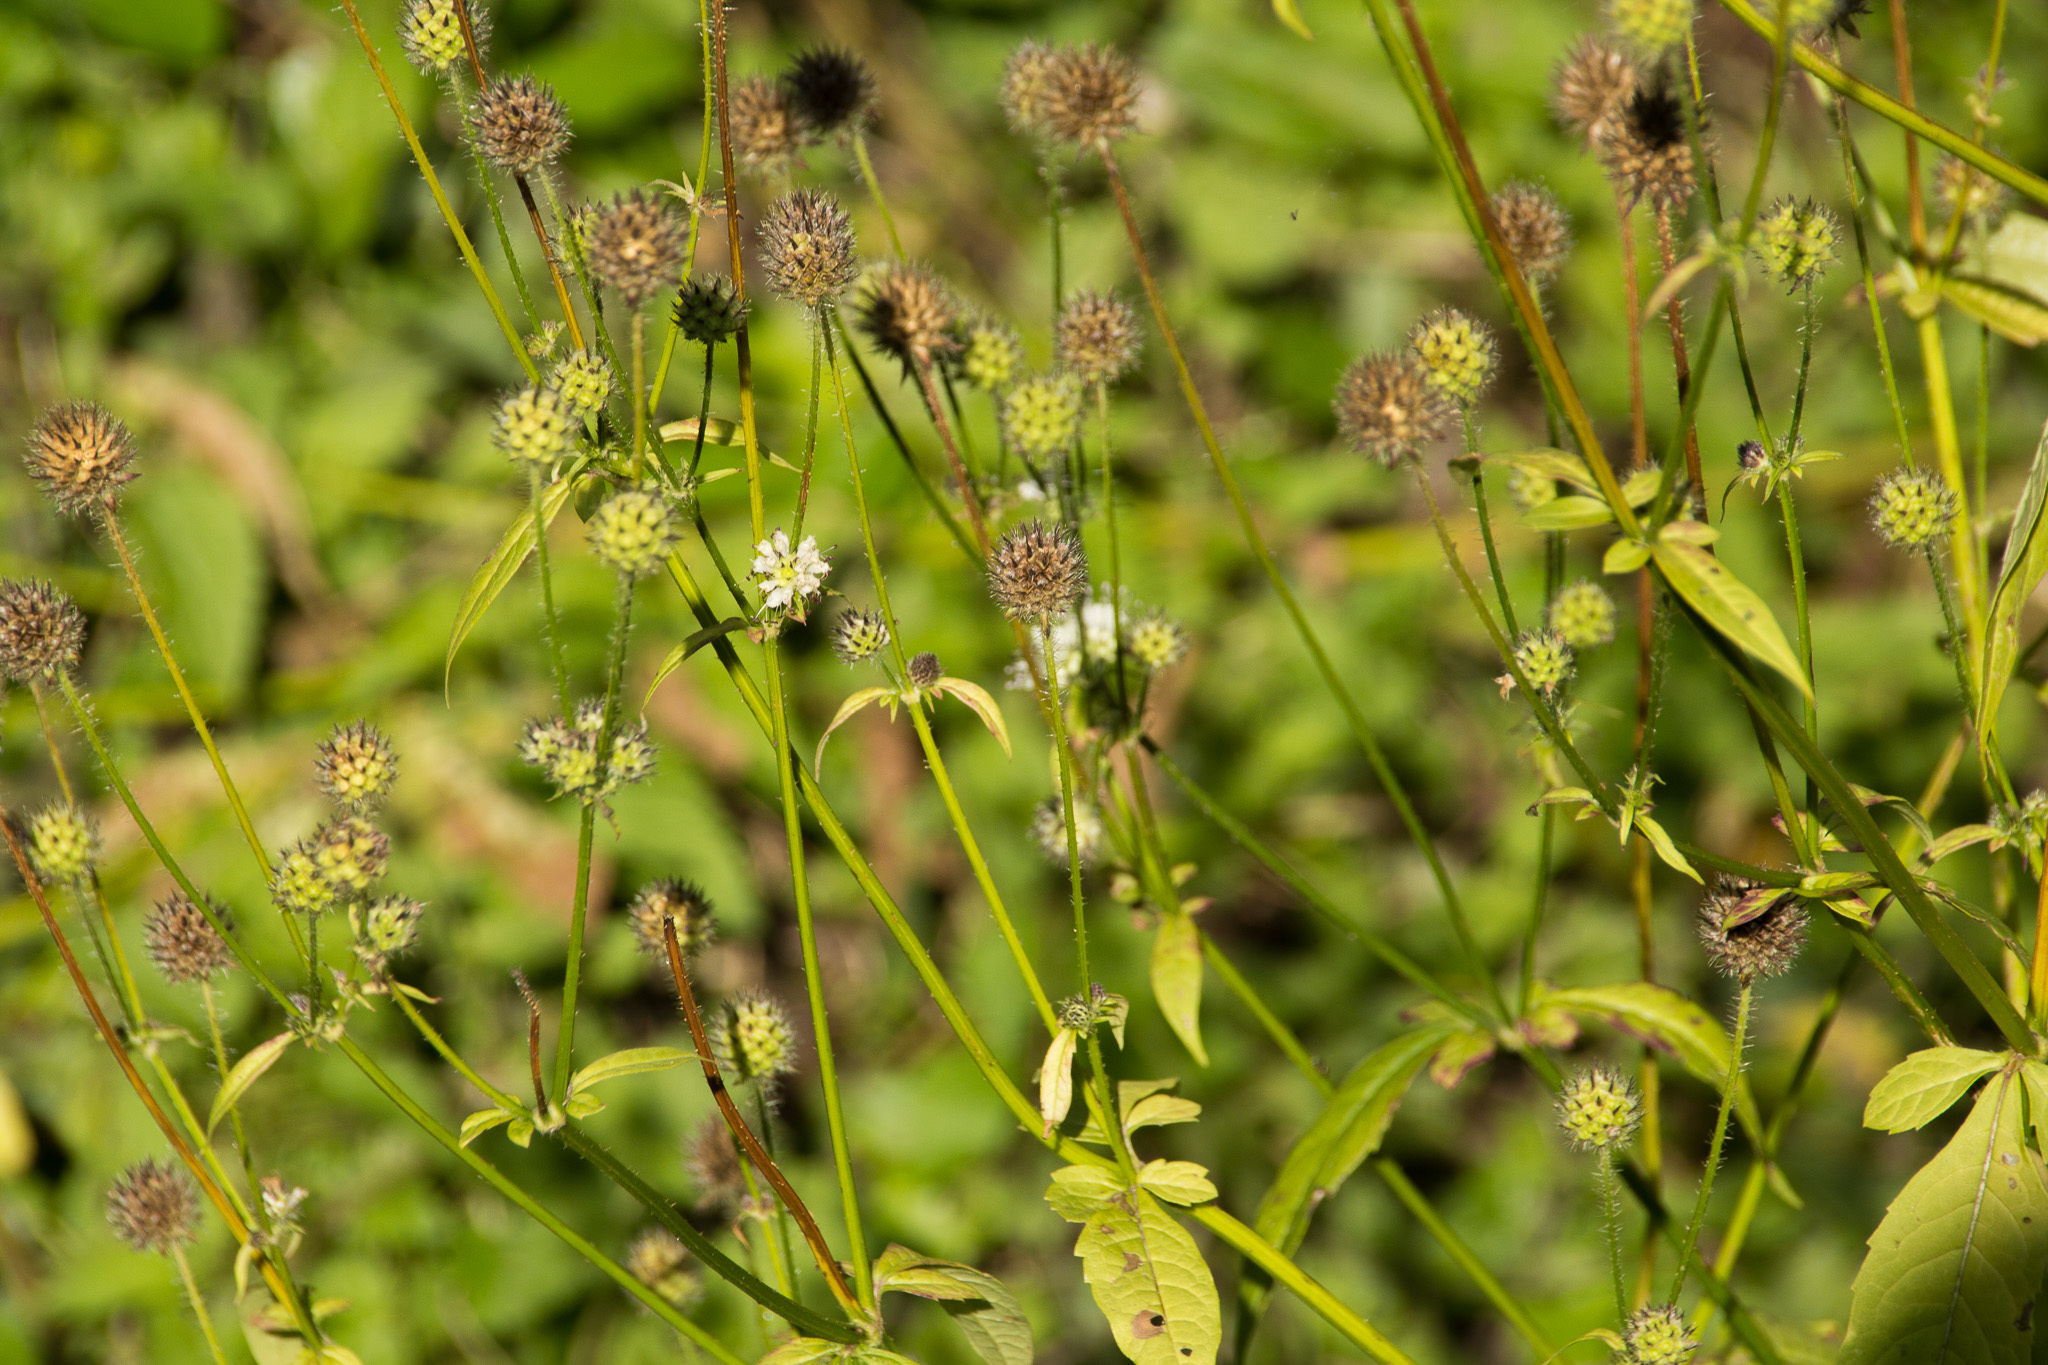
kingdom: Plantae
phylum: Tracheophyta
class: Magnoliopsida
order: Dipsacales
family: Caprifoliaceae
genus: Dipsacus
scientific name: Dipsacus pilosus
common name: Small teasel
